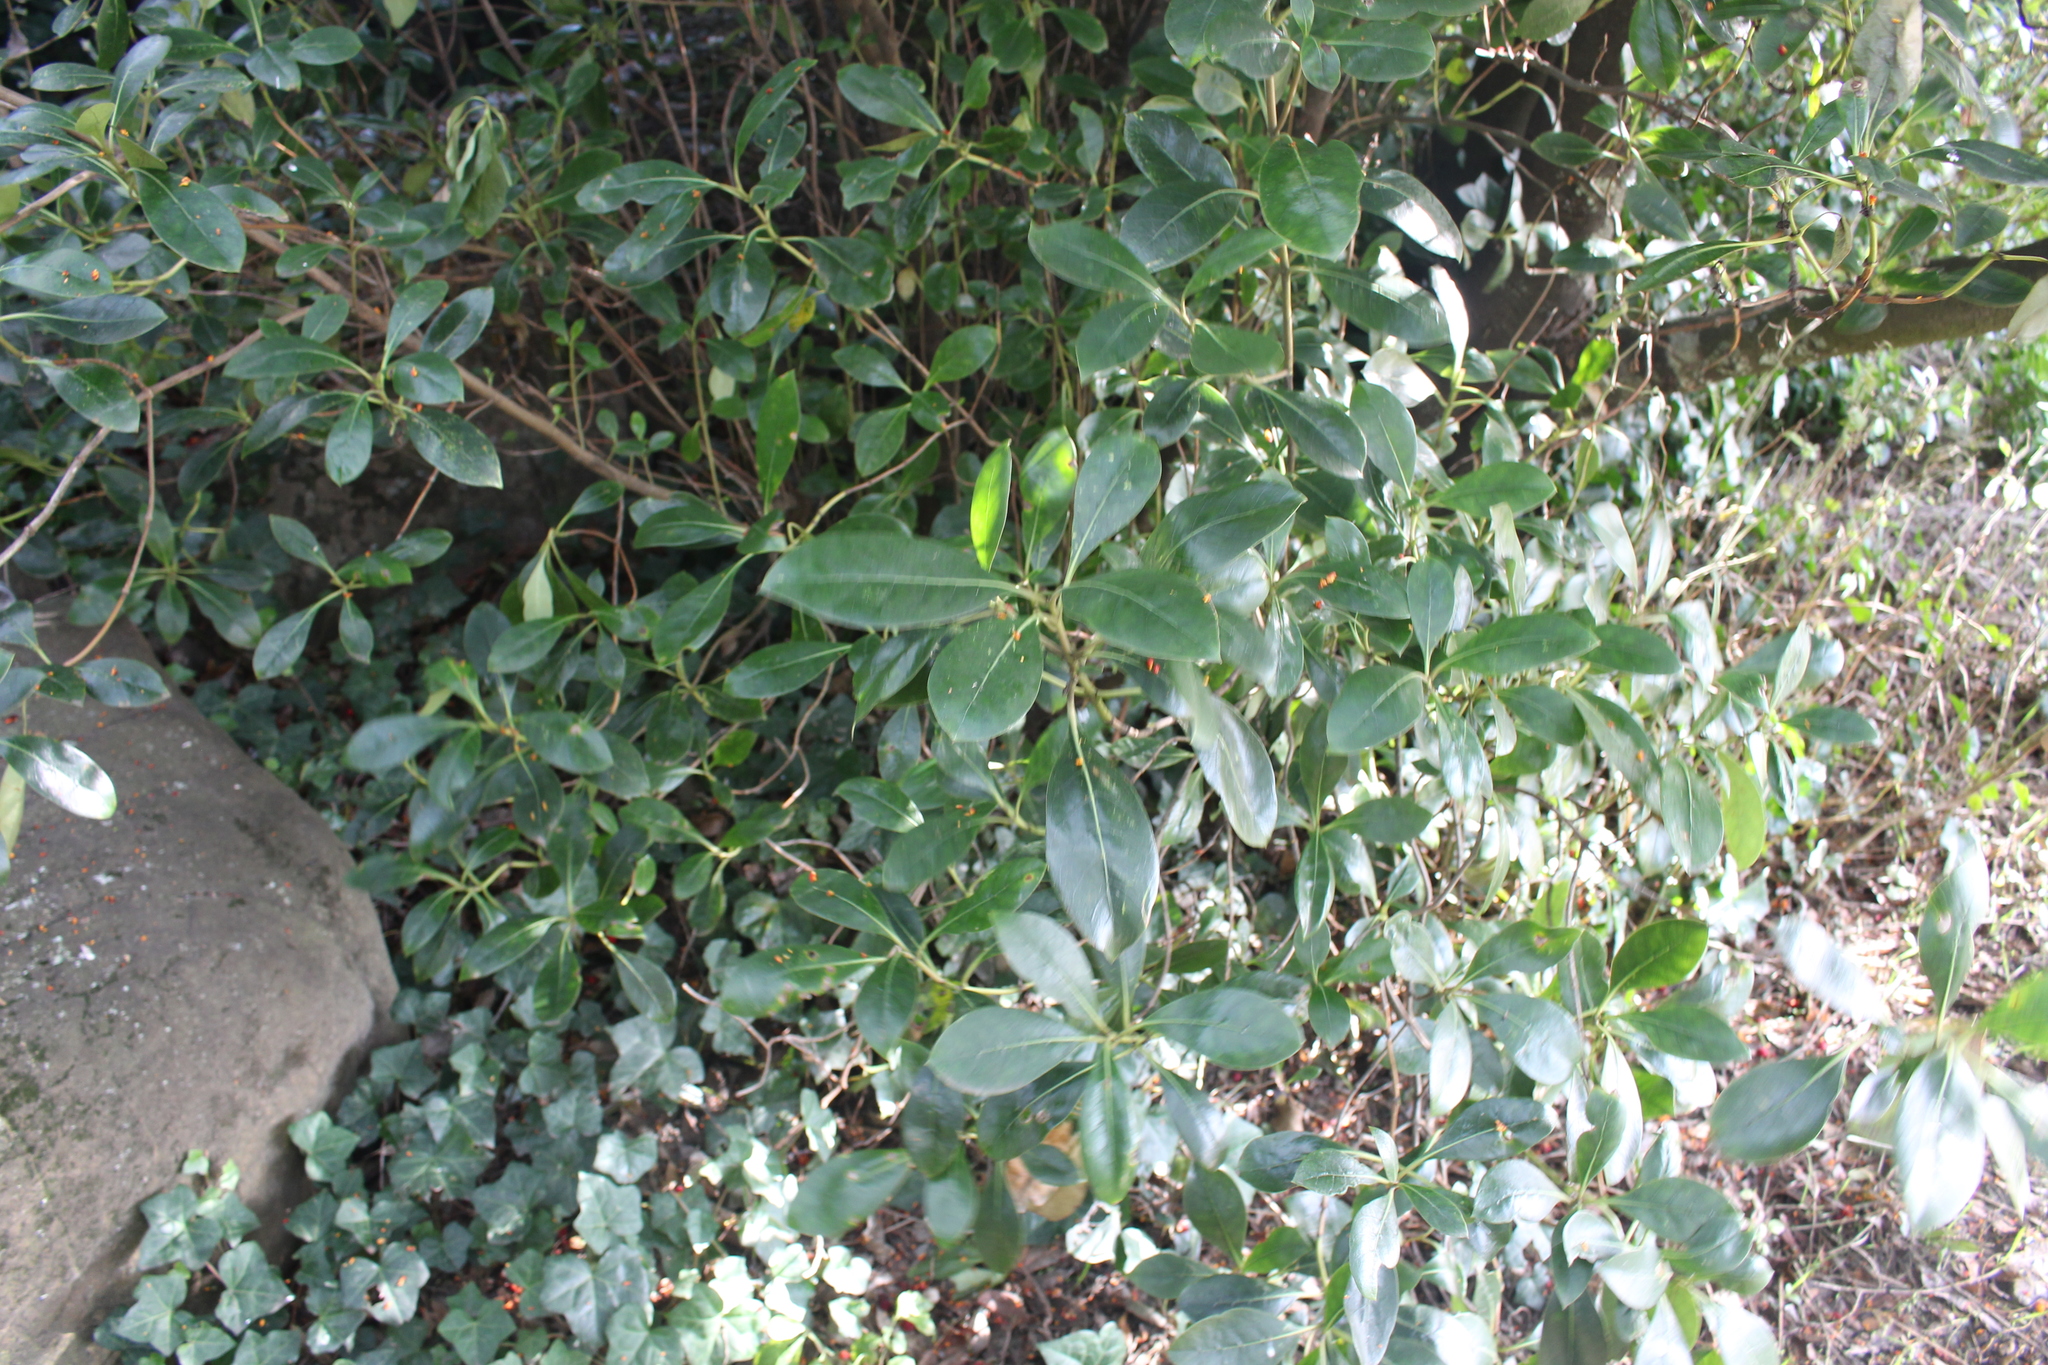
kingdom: Plantae
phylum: Tracheophyta
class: Magnoliopsida
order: Gentianales
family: Rubiaceae
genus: Coprosma
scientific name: Coprosma lucida
